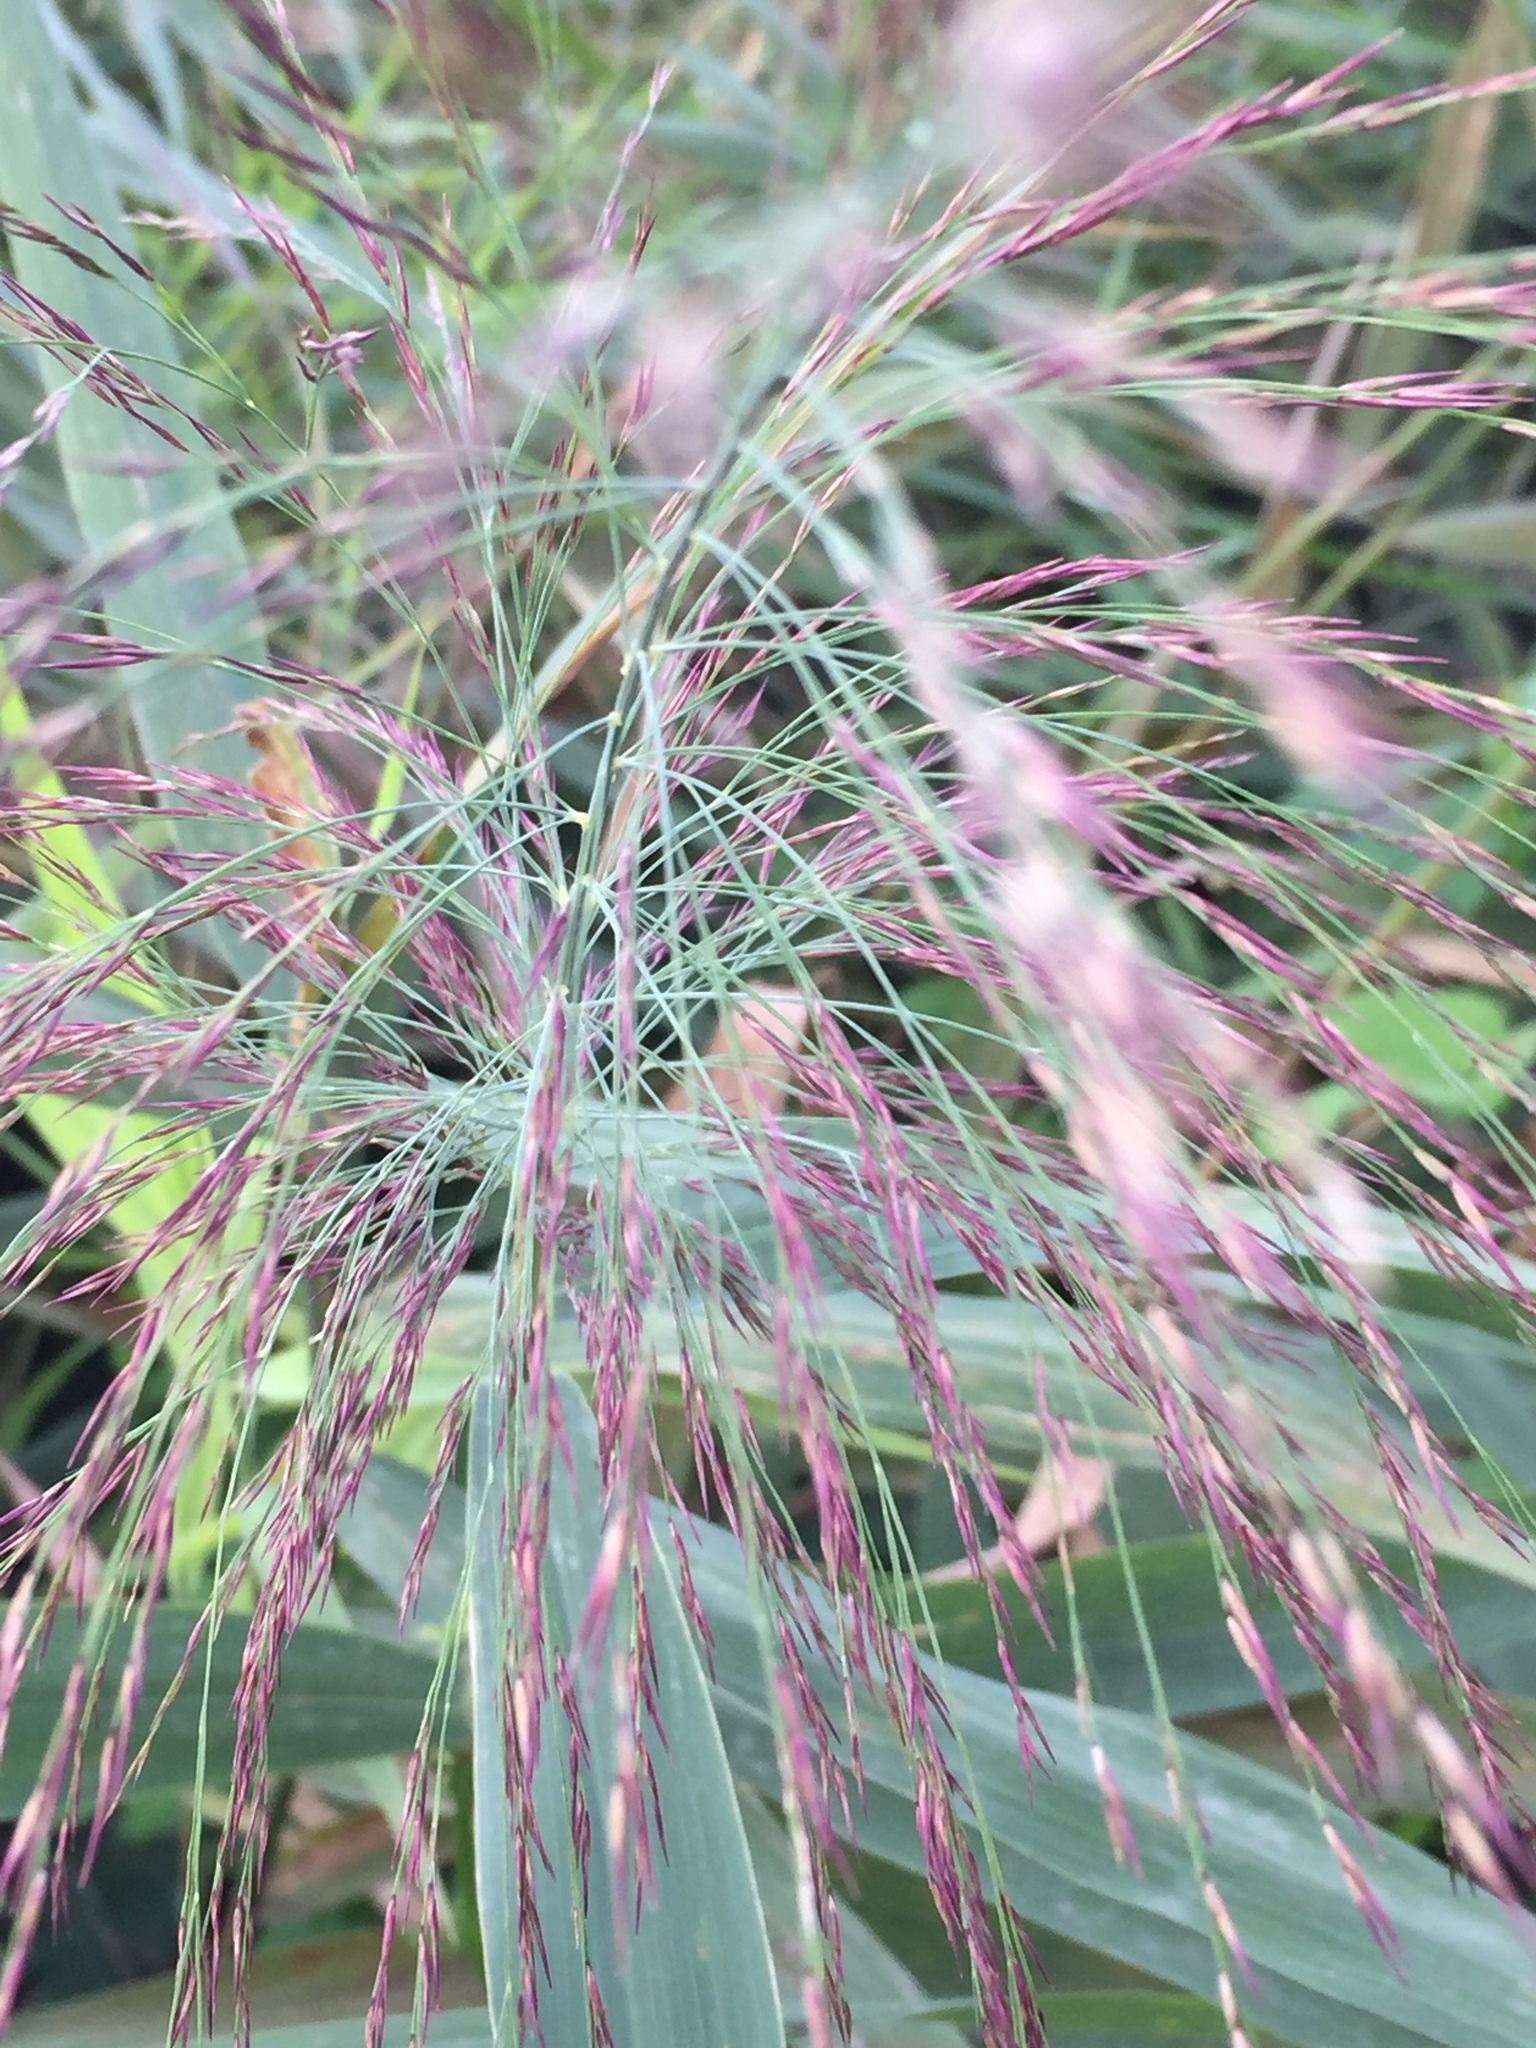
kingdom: Plantae
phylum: Tracheophyta
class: Liliopsida
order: Poales
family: Poaceae
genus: Phragmites
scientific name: Phragmites australis
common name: Common reed
